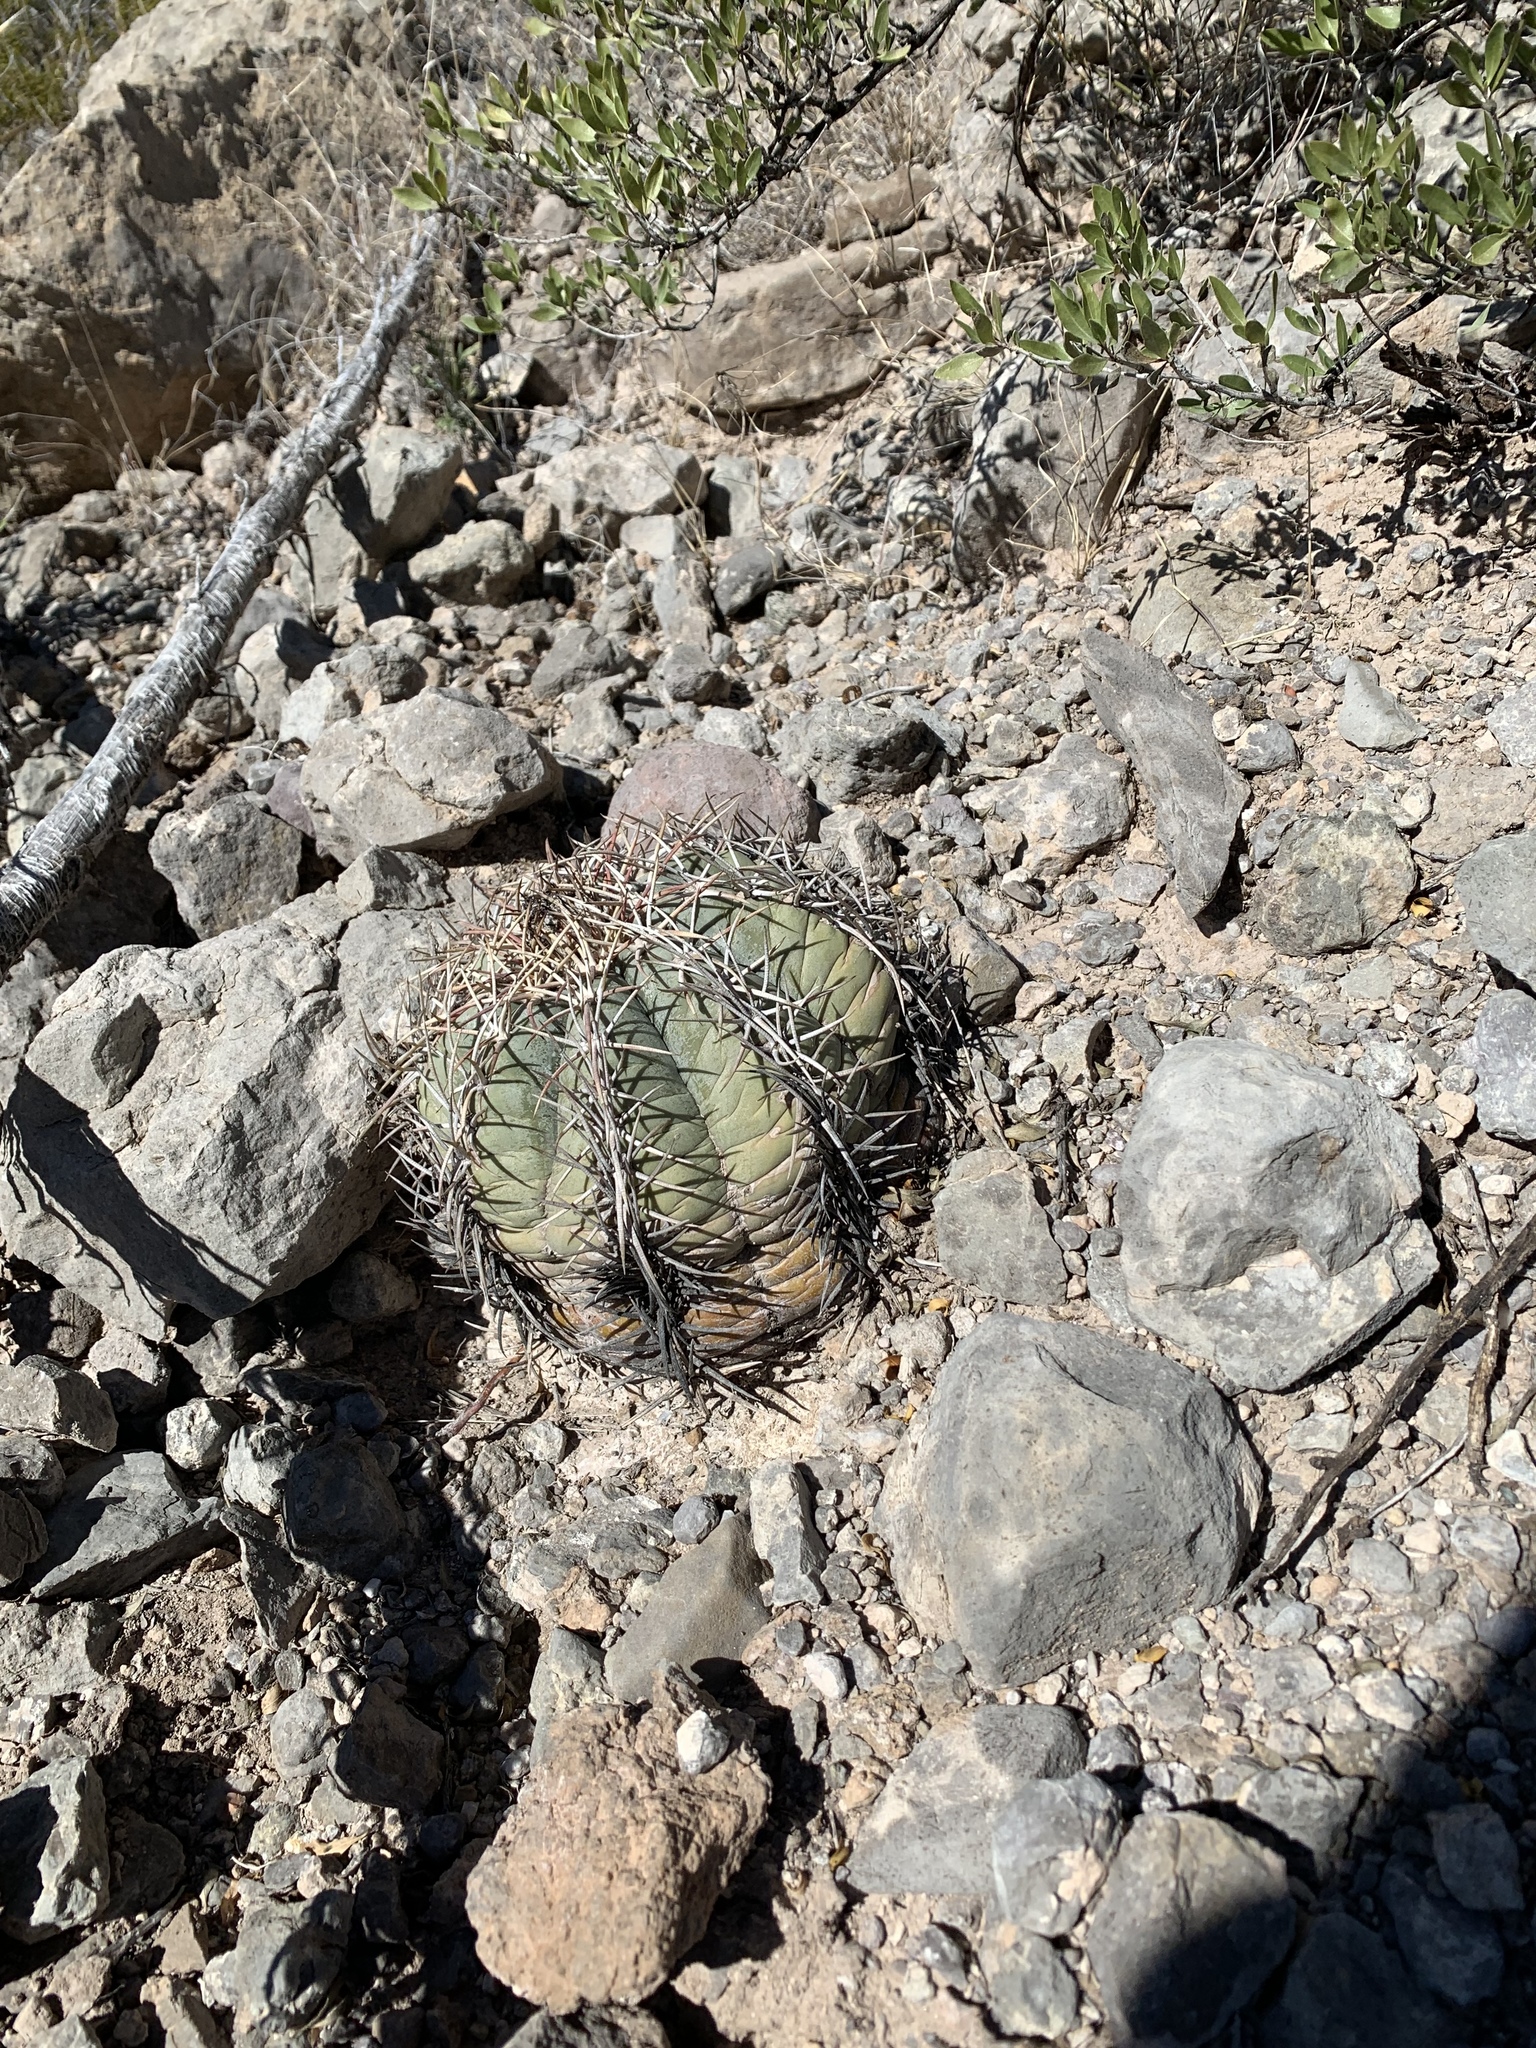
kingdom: Plantae
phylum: Tracheophyta
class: Magnoliopsida
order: Caryophyllales
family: Cactaceae
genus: Echinocactus
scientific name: Echinocactus horizonthalonius
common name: Devilshead
